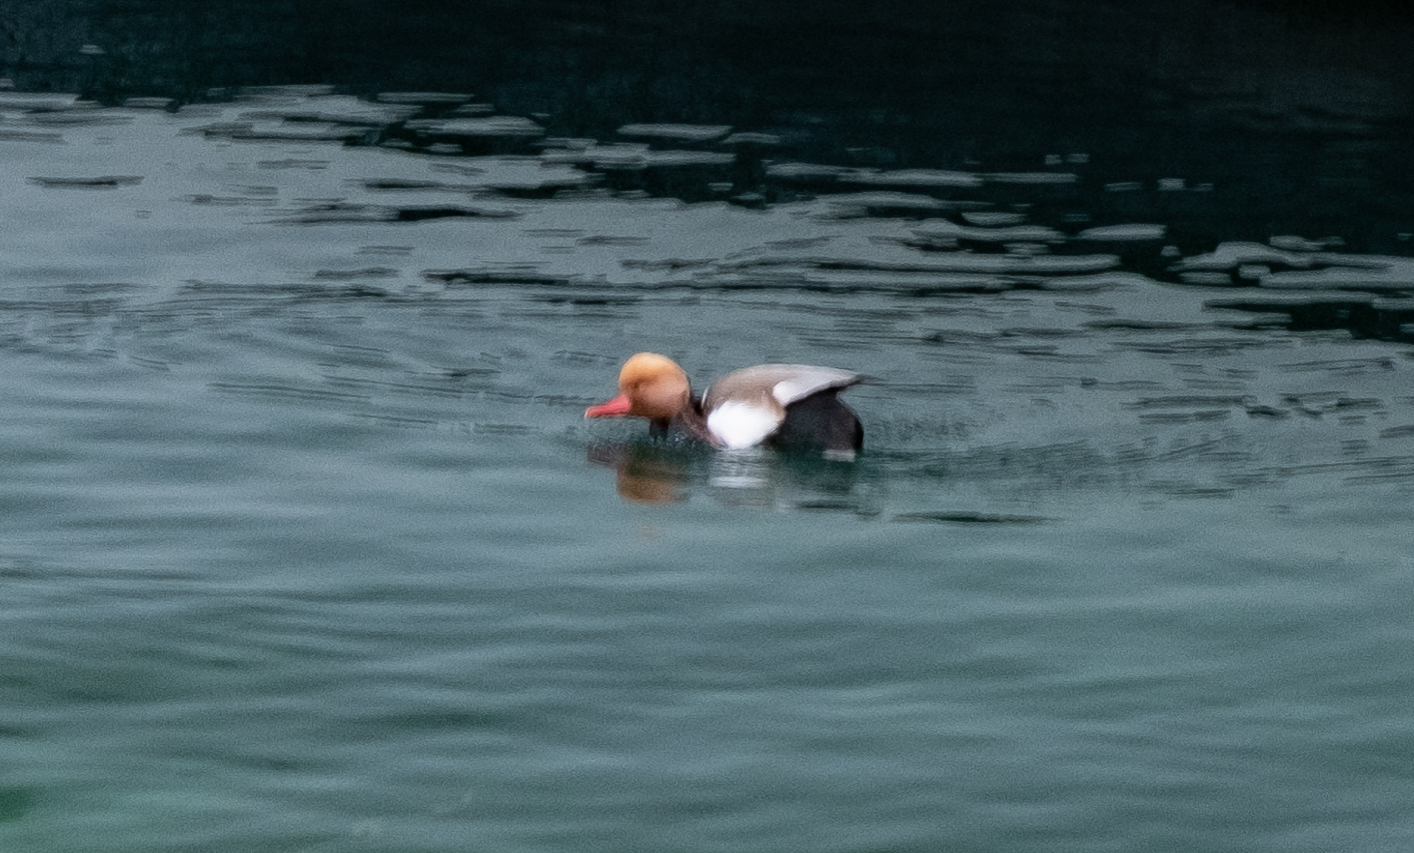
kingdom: Animalia
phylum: Chordata
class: Aves
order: Anseriformes
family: Anatidae
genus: Netta
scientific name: Netta rufina
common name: Red-crested pochard
